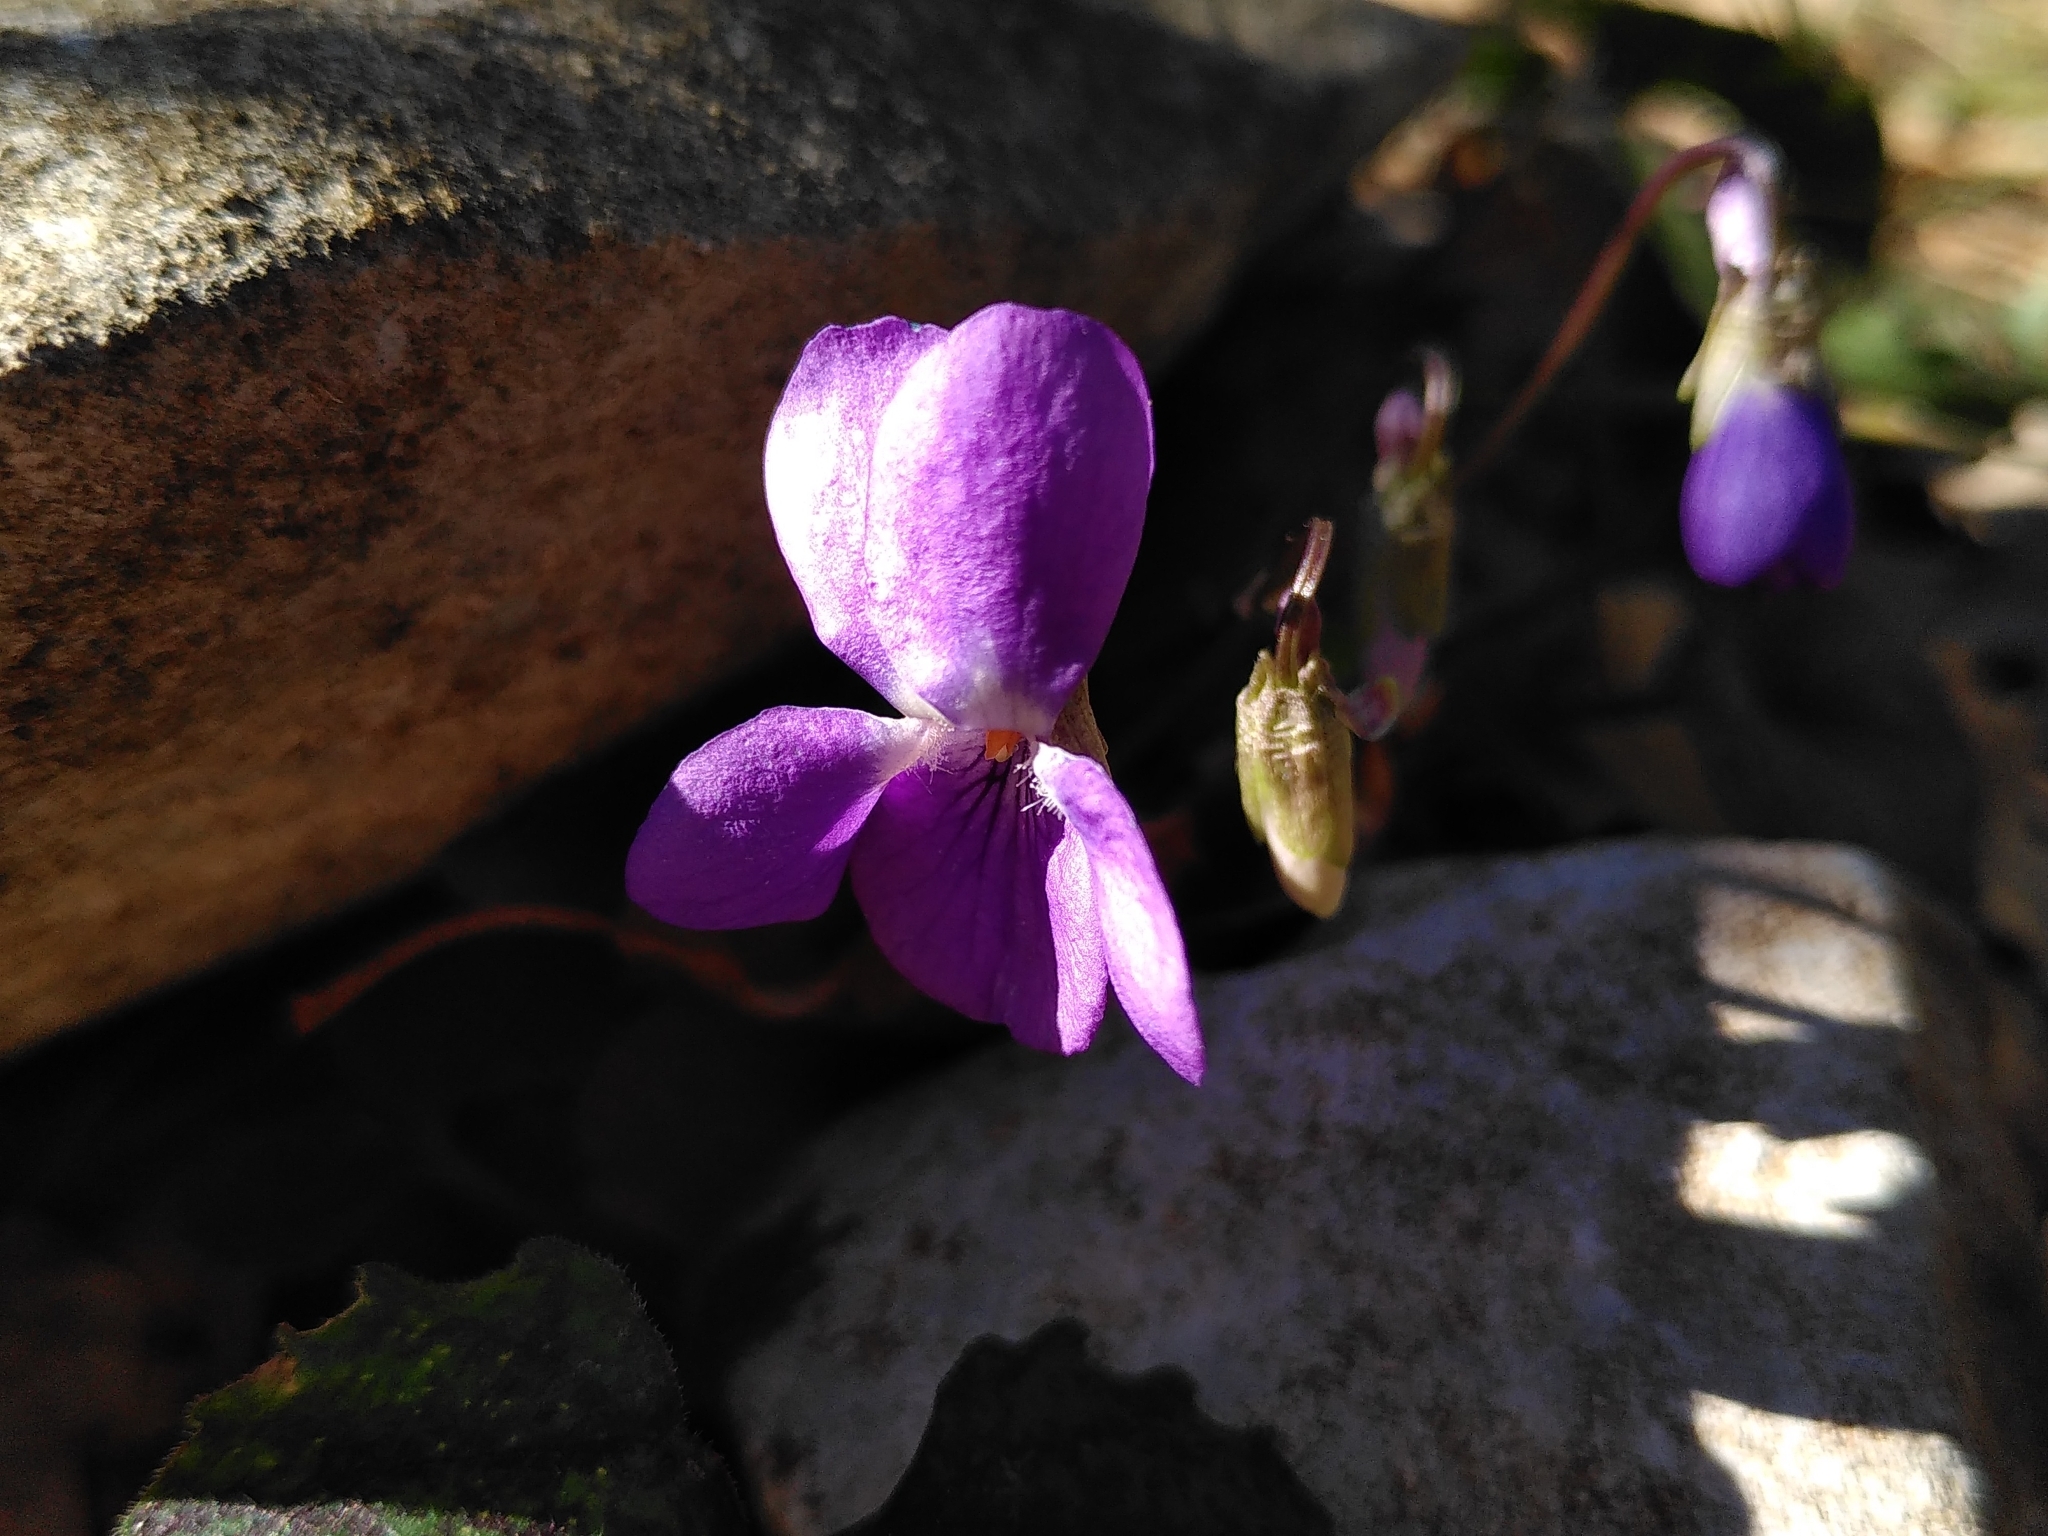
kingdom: Plantae
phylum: Tracheophyta
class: Magnoliopsida
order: Malpighiales
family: Violaceae
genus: Viola
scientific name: Viola alba
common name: White violet
